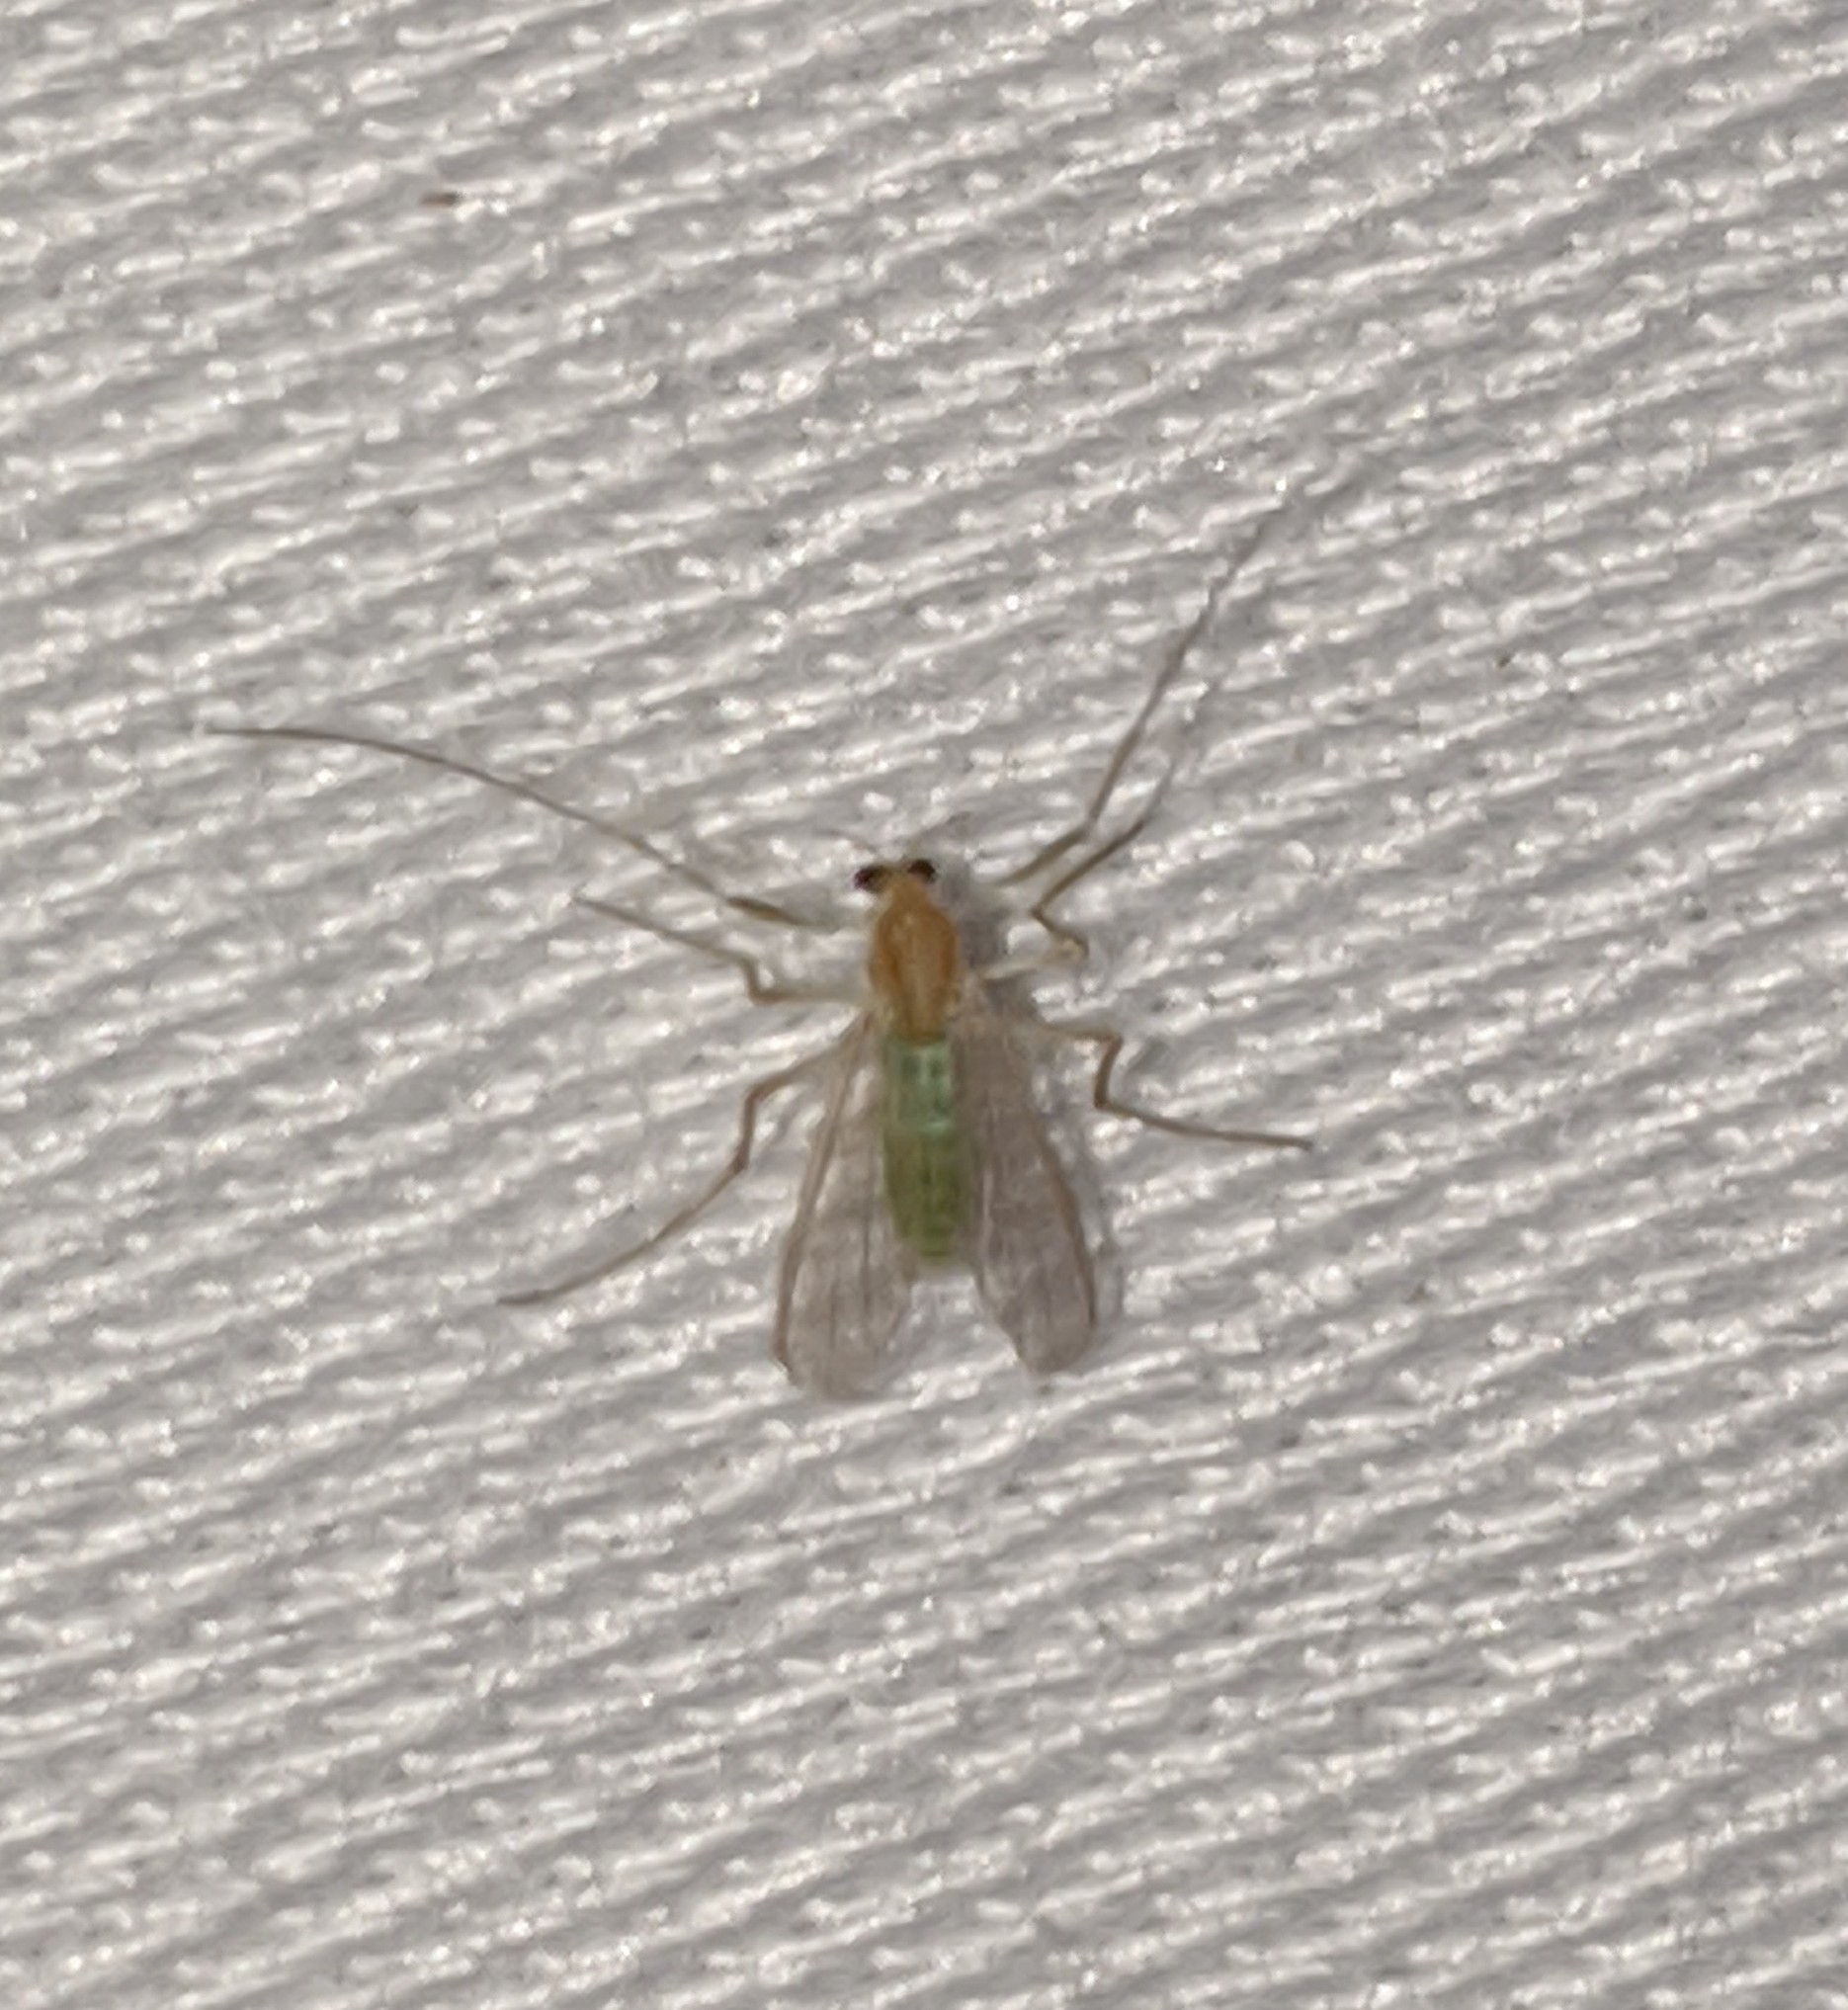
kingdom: Animalia
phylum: Arthropoda
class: Insecta
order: Diptera
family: Chironomidae
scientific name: Chironomidae
